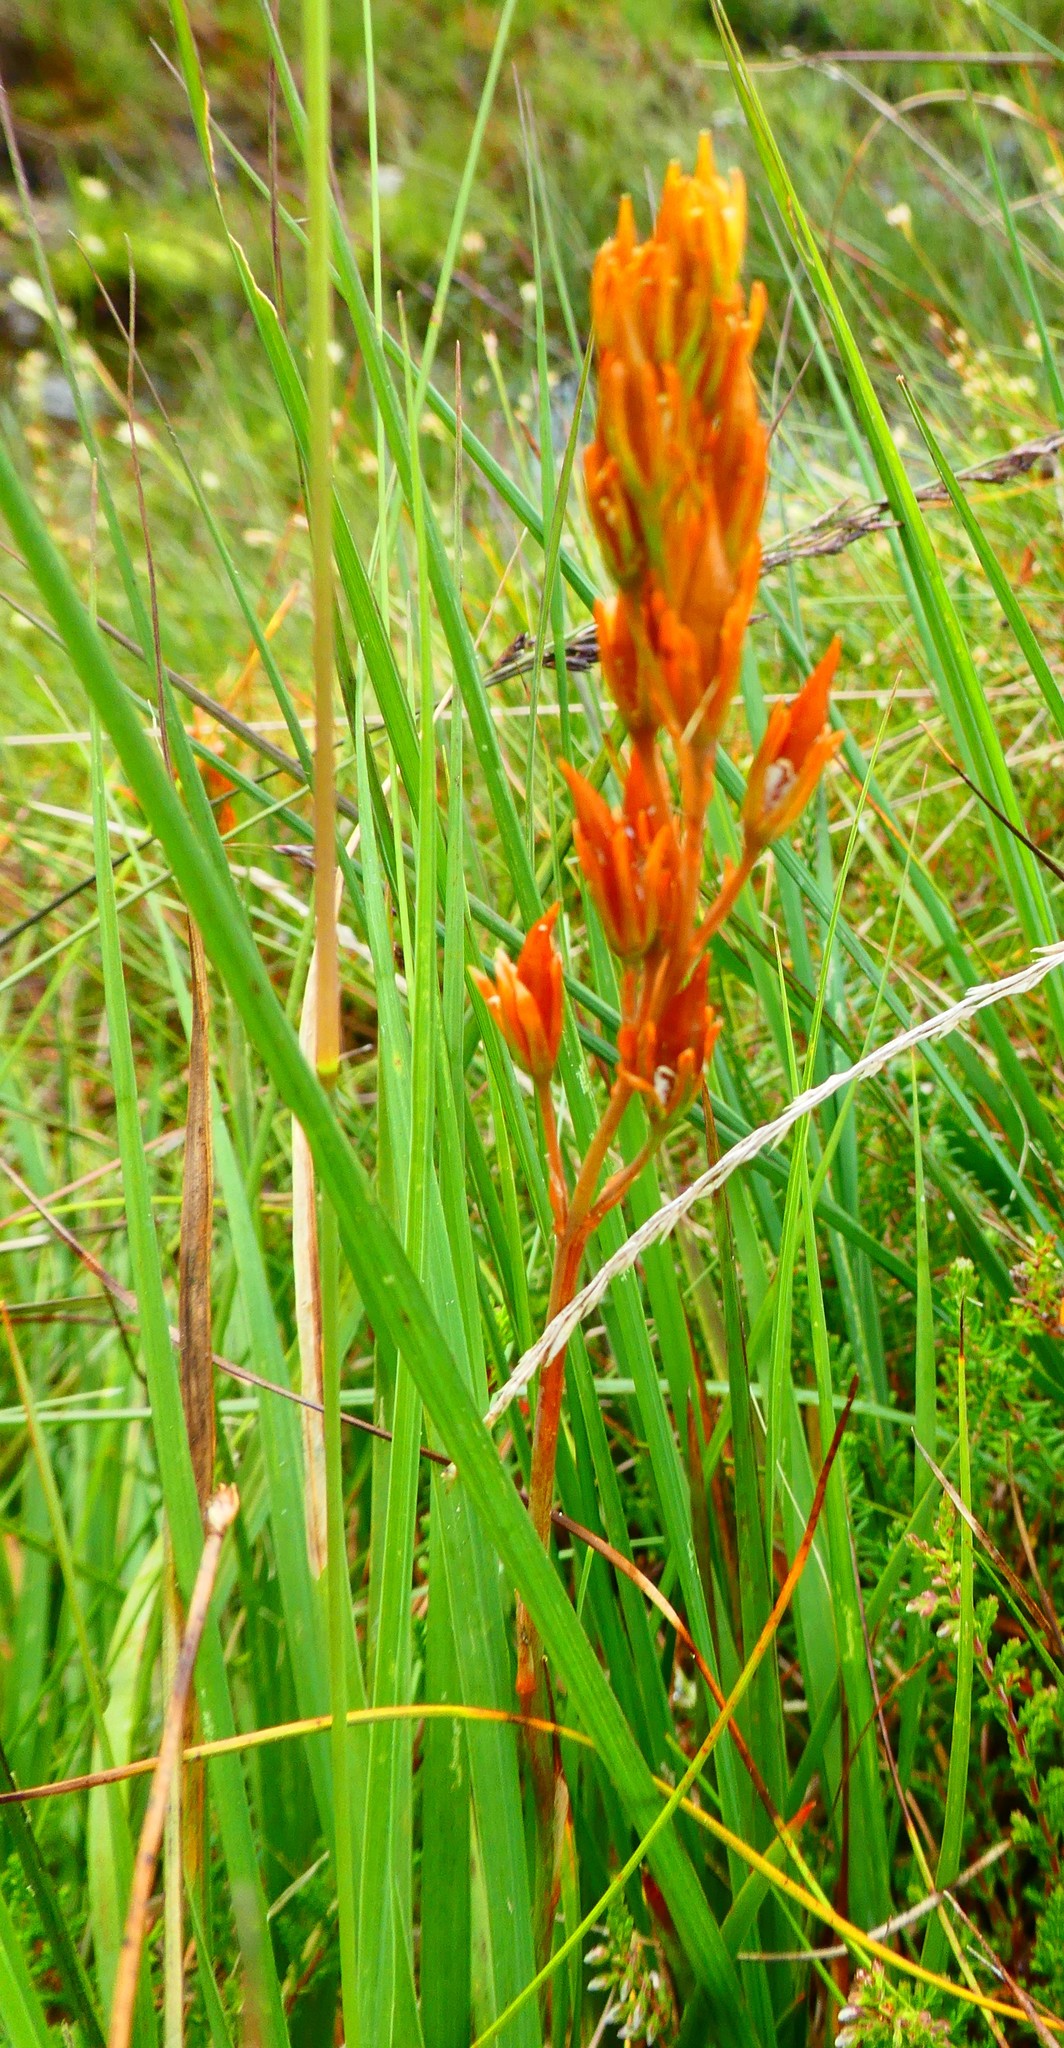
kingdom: Plantae
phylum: Tracheophyta
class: Liliopsida
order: Dioscoreales
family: Nartheciaceae
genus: Narthecium
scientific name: Narthecium ossifragum
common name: Bog asphodel
